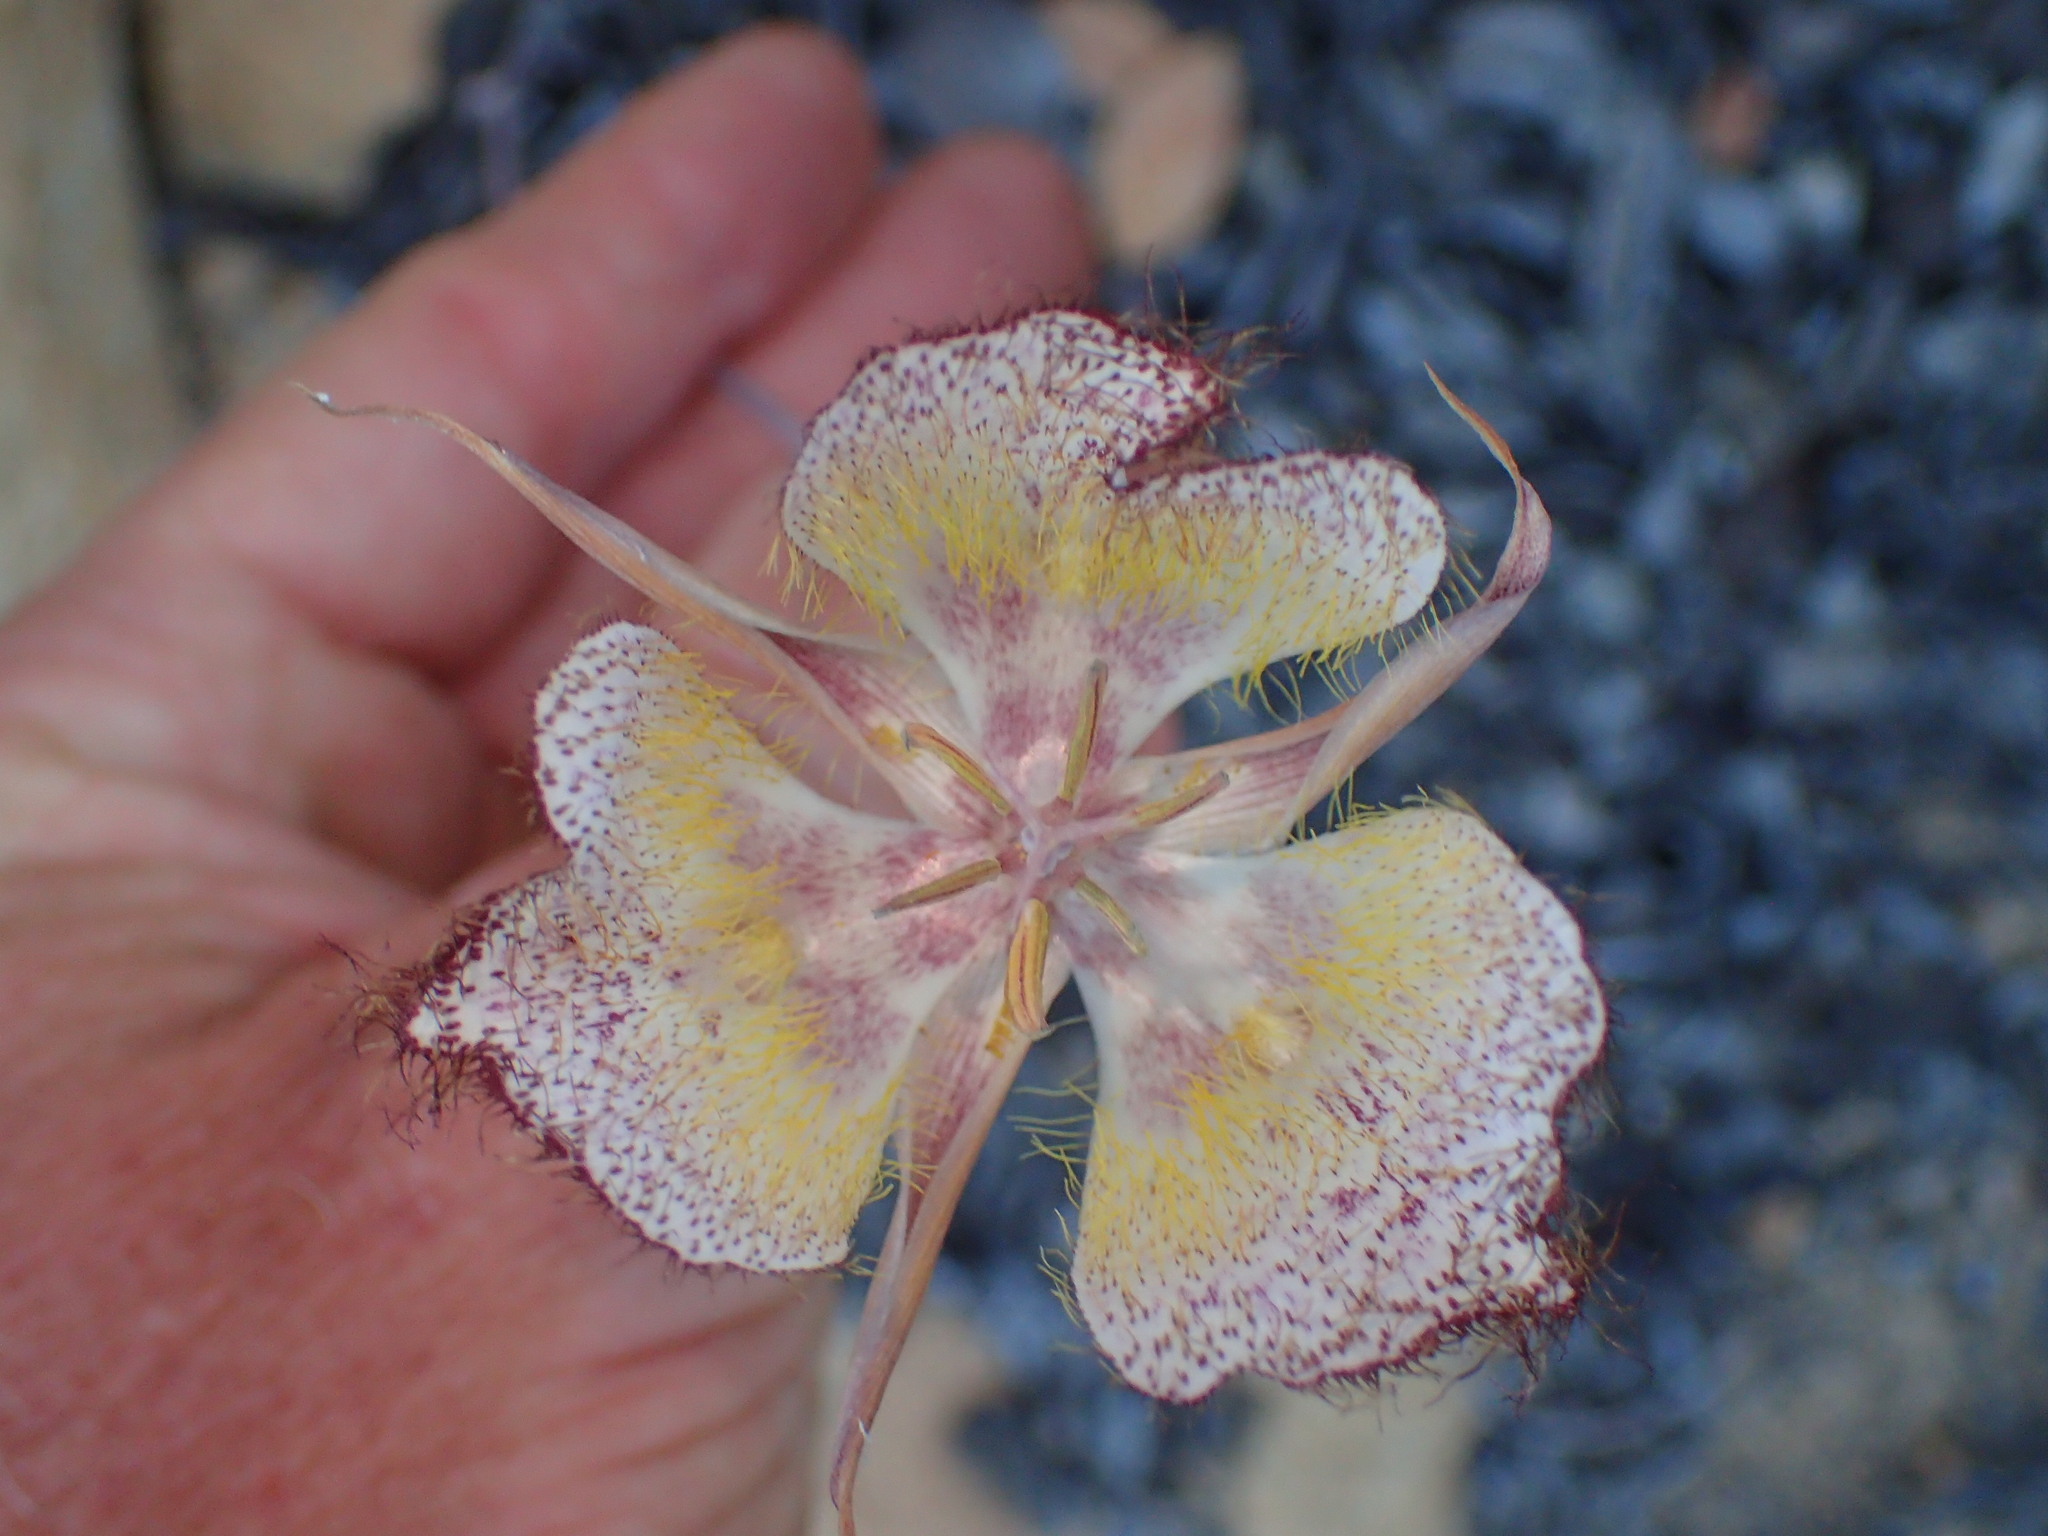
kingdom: Plantae
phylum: Tracheophyta
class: Liliopsida
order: Liliales
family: Liliaceae
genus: Calochortus
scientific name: Calochortus fimbriatus
